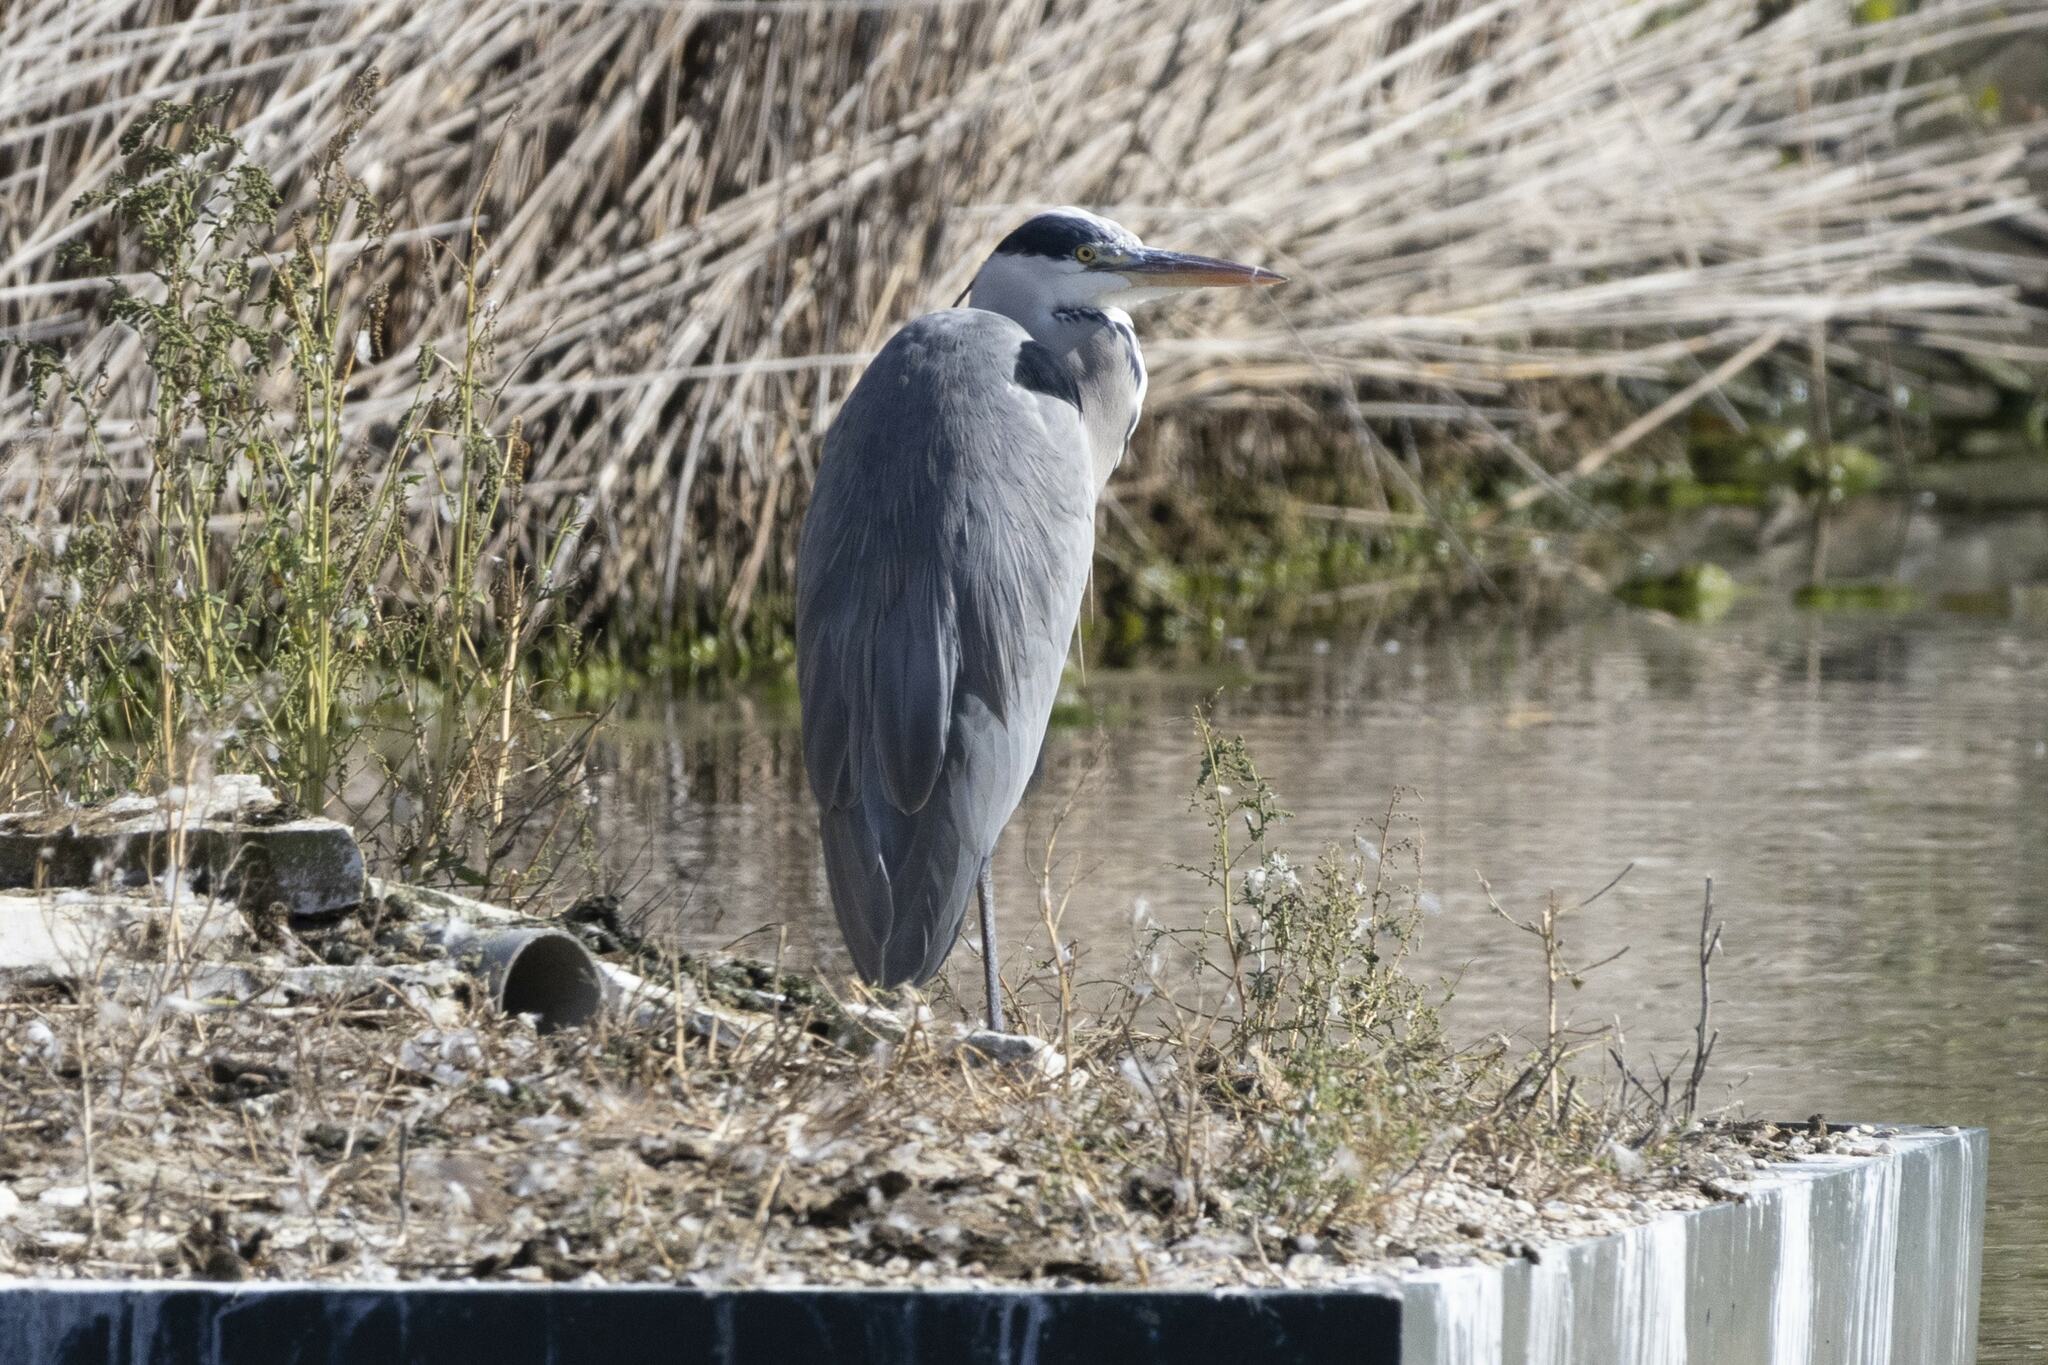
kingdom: Animalia
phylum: Chordata
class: Aves
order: Pelecaniformes
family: Ardeidae
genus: Ardea
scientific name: Ardea cinerea
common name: Grey heron
